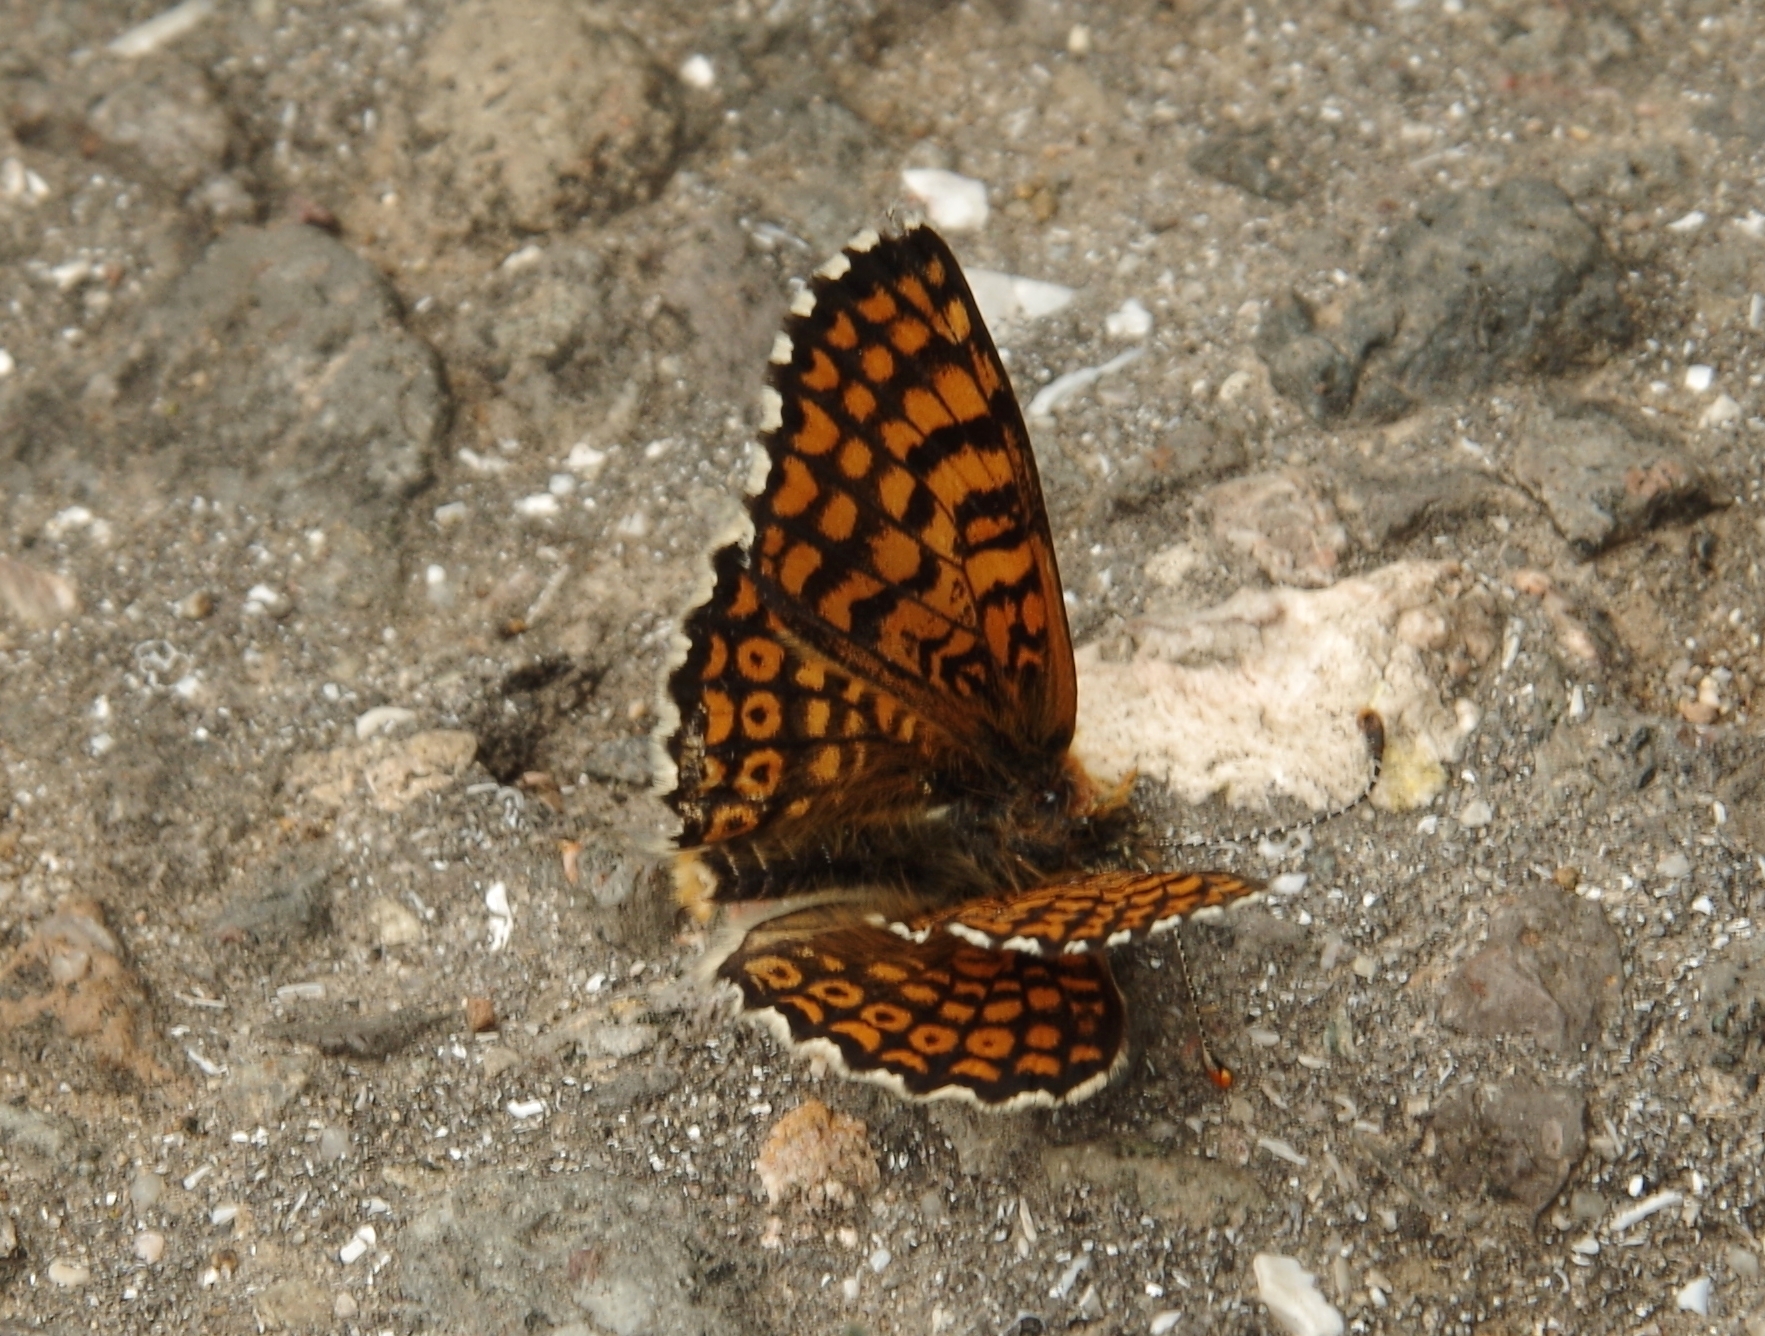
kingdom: Animalia
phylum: Arthropoda
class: Insecta
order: Lepidoptera
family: Nymphalidae
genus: Melitaea
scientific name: Melitaea cinxia
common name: Glanville fritillary
